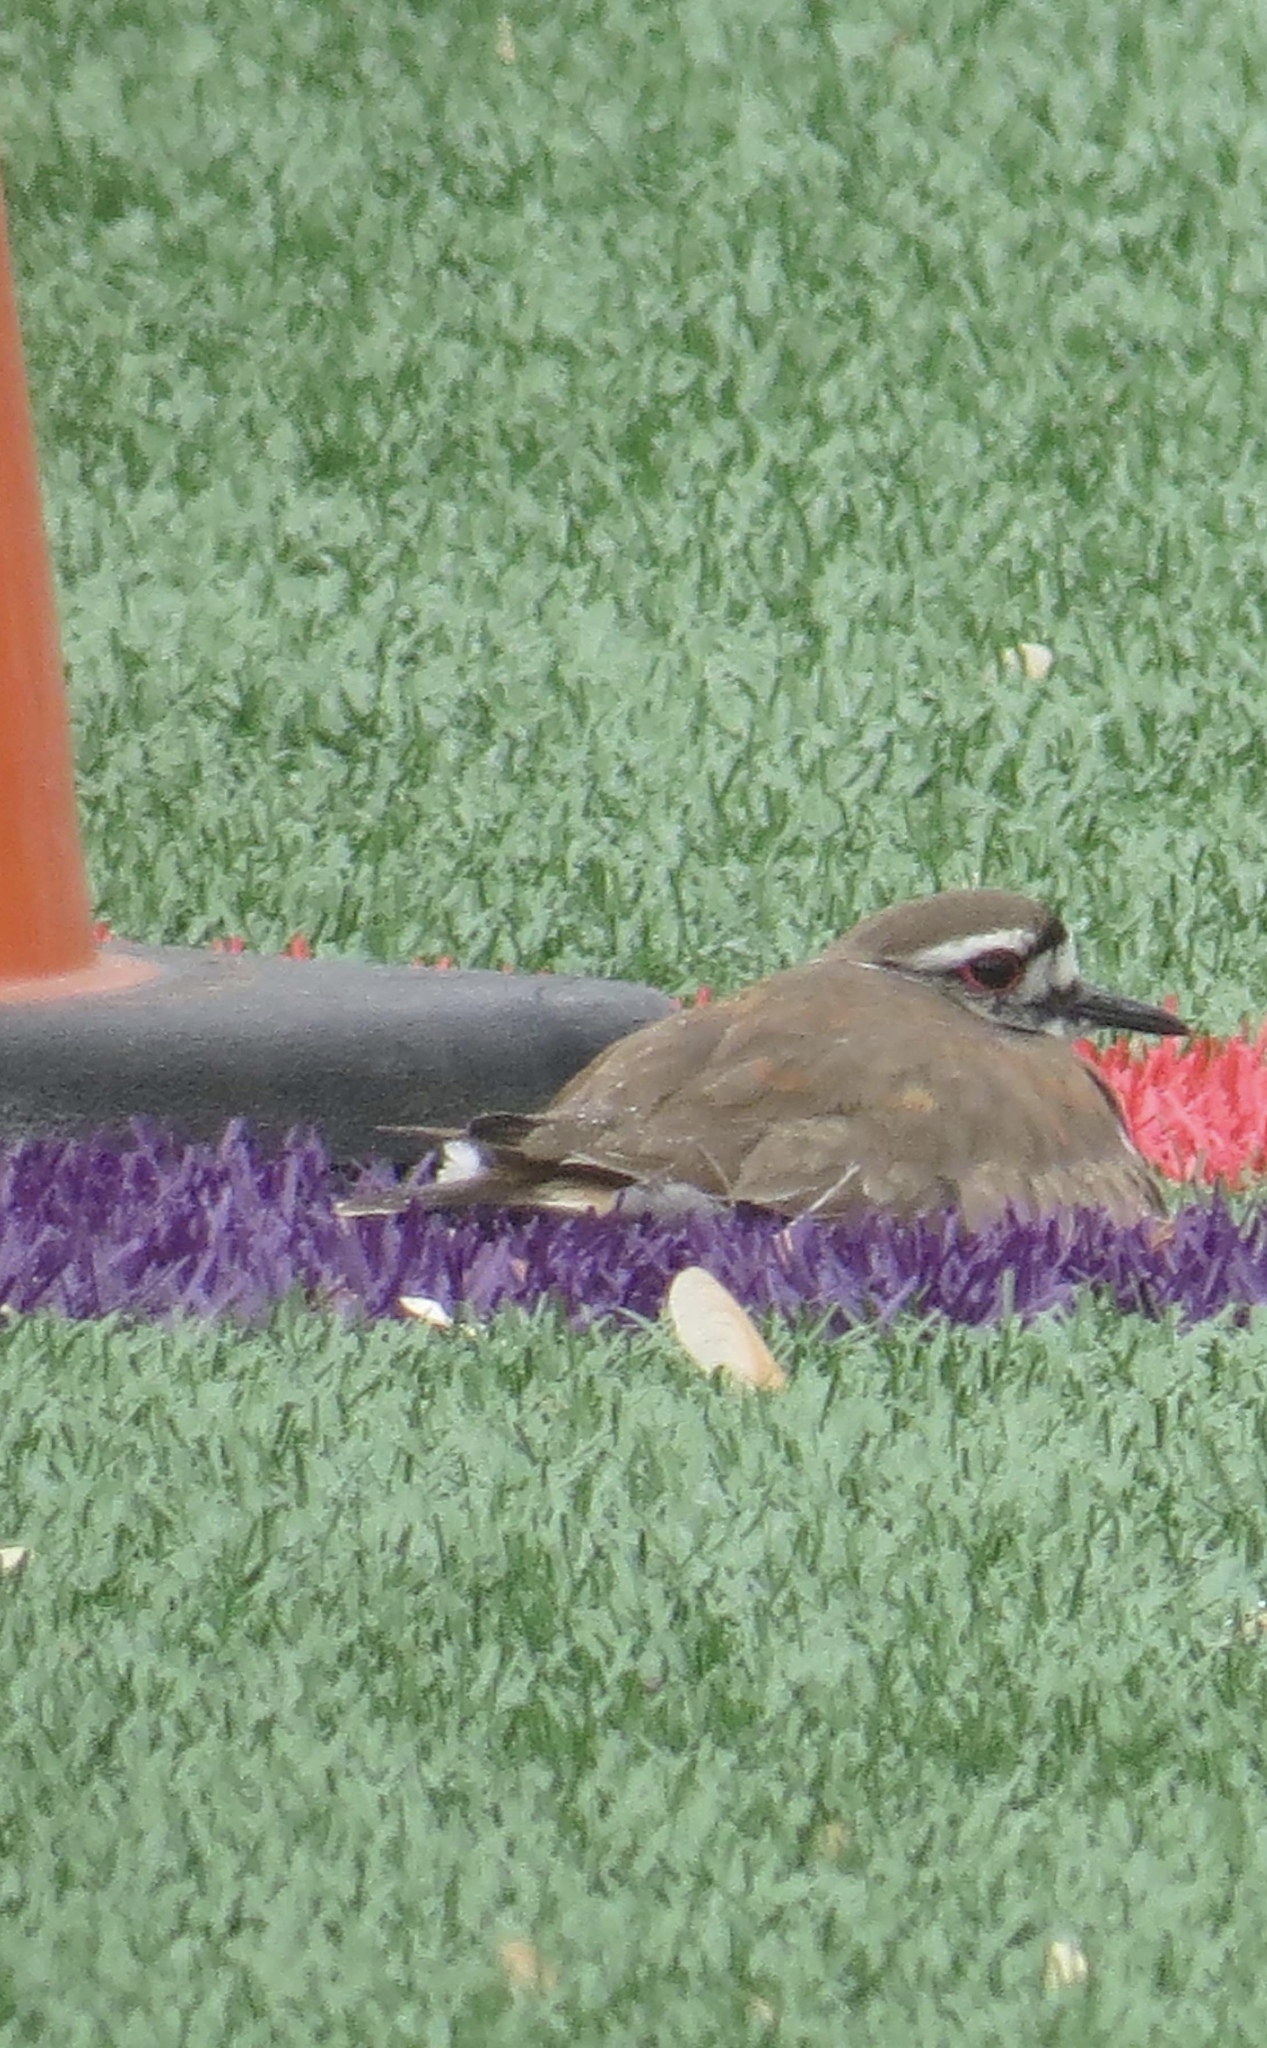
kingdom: Animalia
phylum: Chordata
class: Aves
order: Charadriiformes
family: Charadriidae
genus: Charadrius
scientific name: Charadrius vociferus
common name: Killdeer
